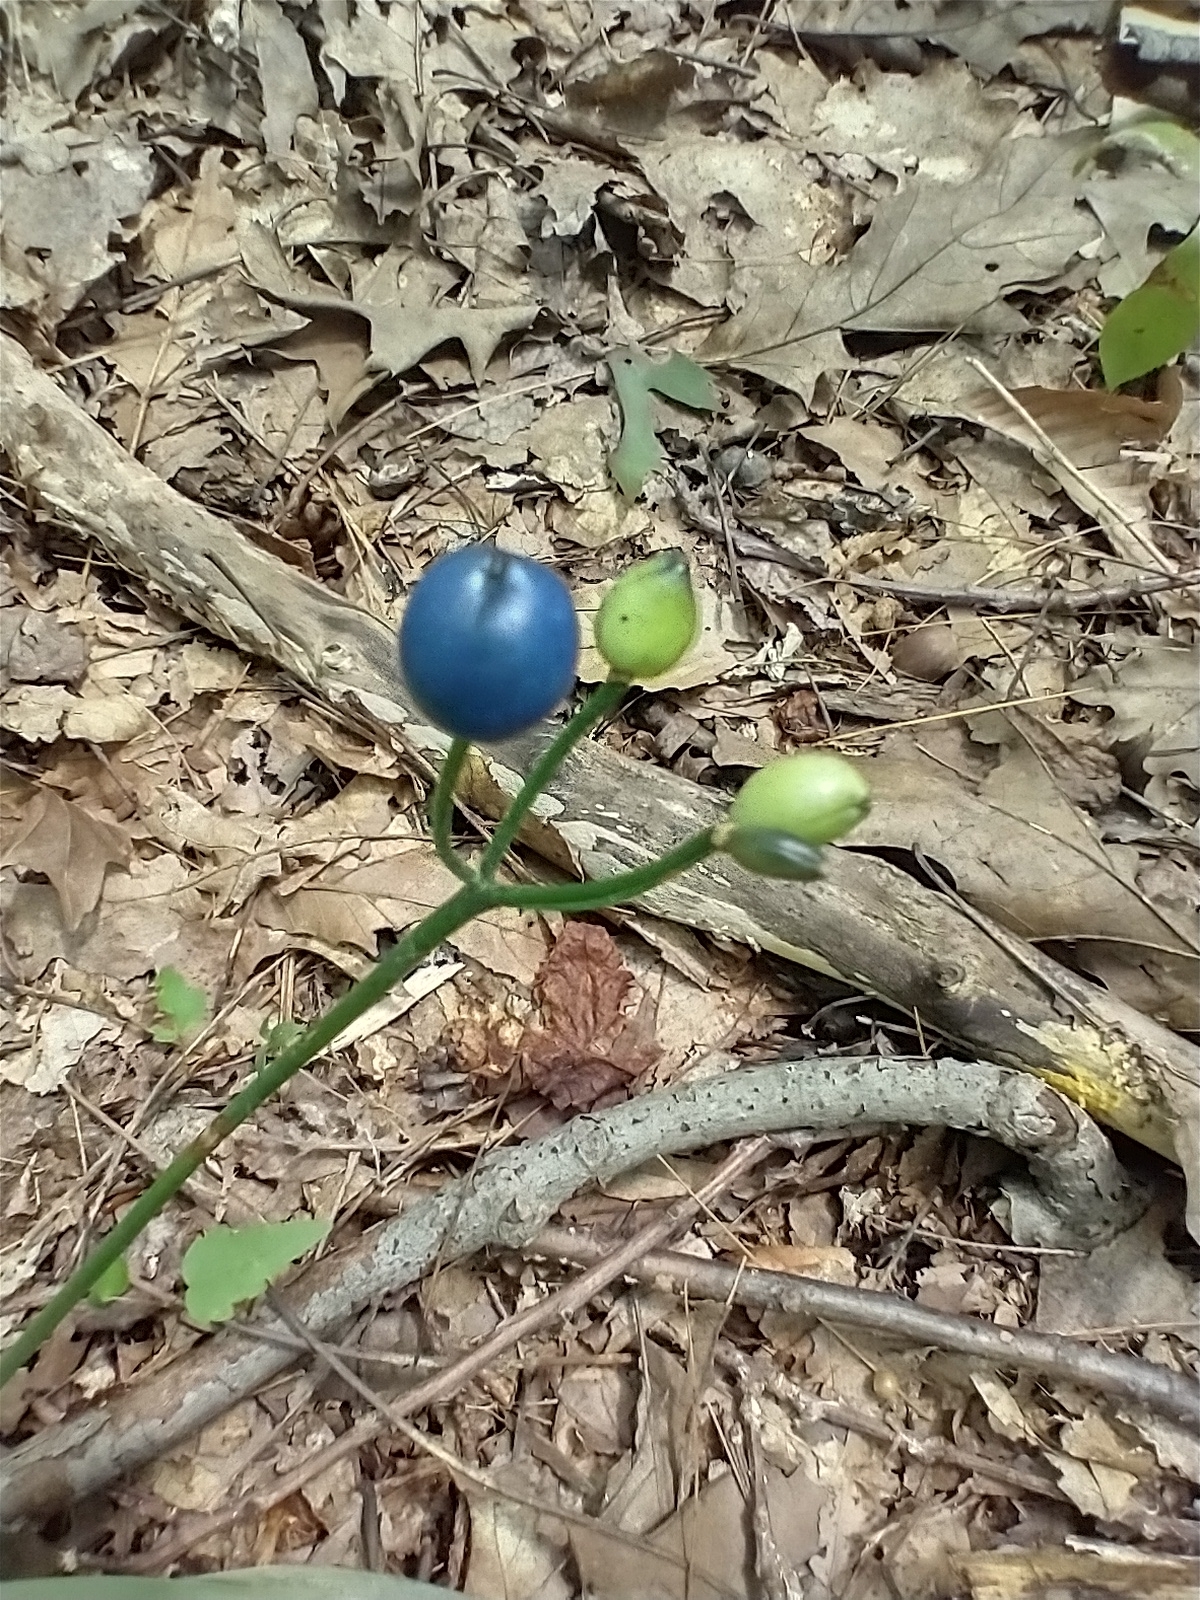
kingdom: Plantae
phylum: Tracheophyta
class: Liliopsida
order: Liliales
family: Liliaceae
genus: Clintonia
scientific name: Clintonia borealis
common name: Yellow clintonia
